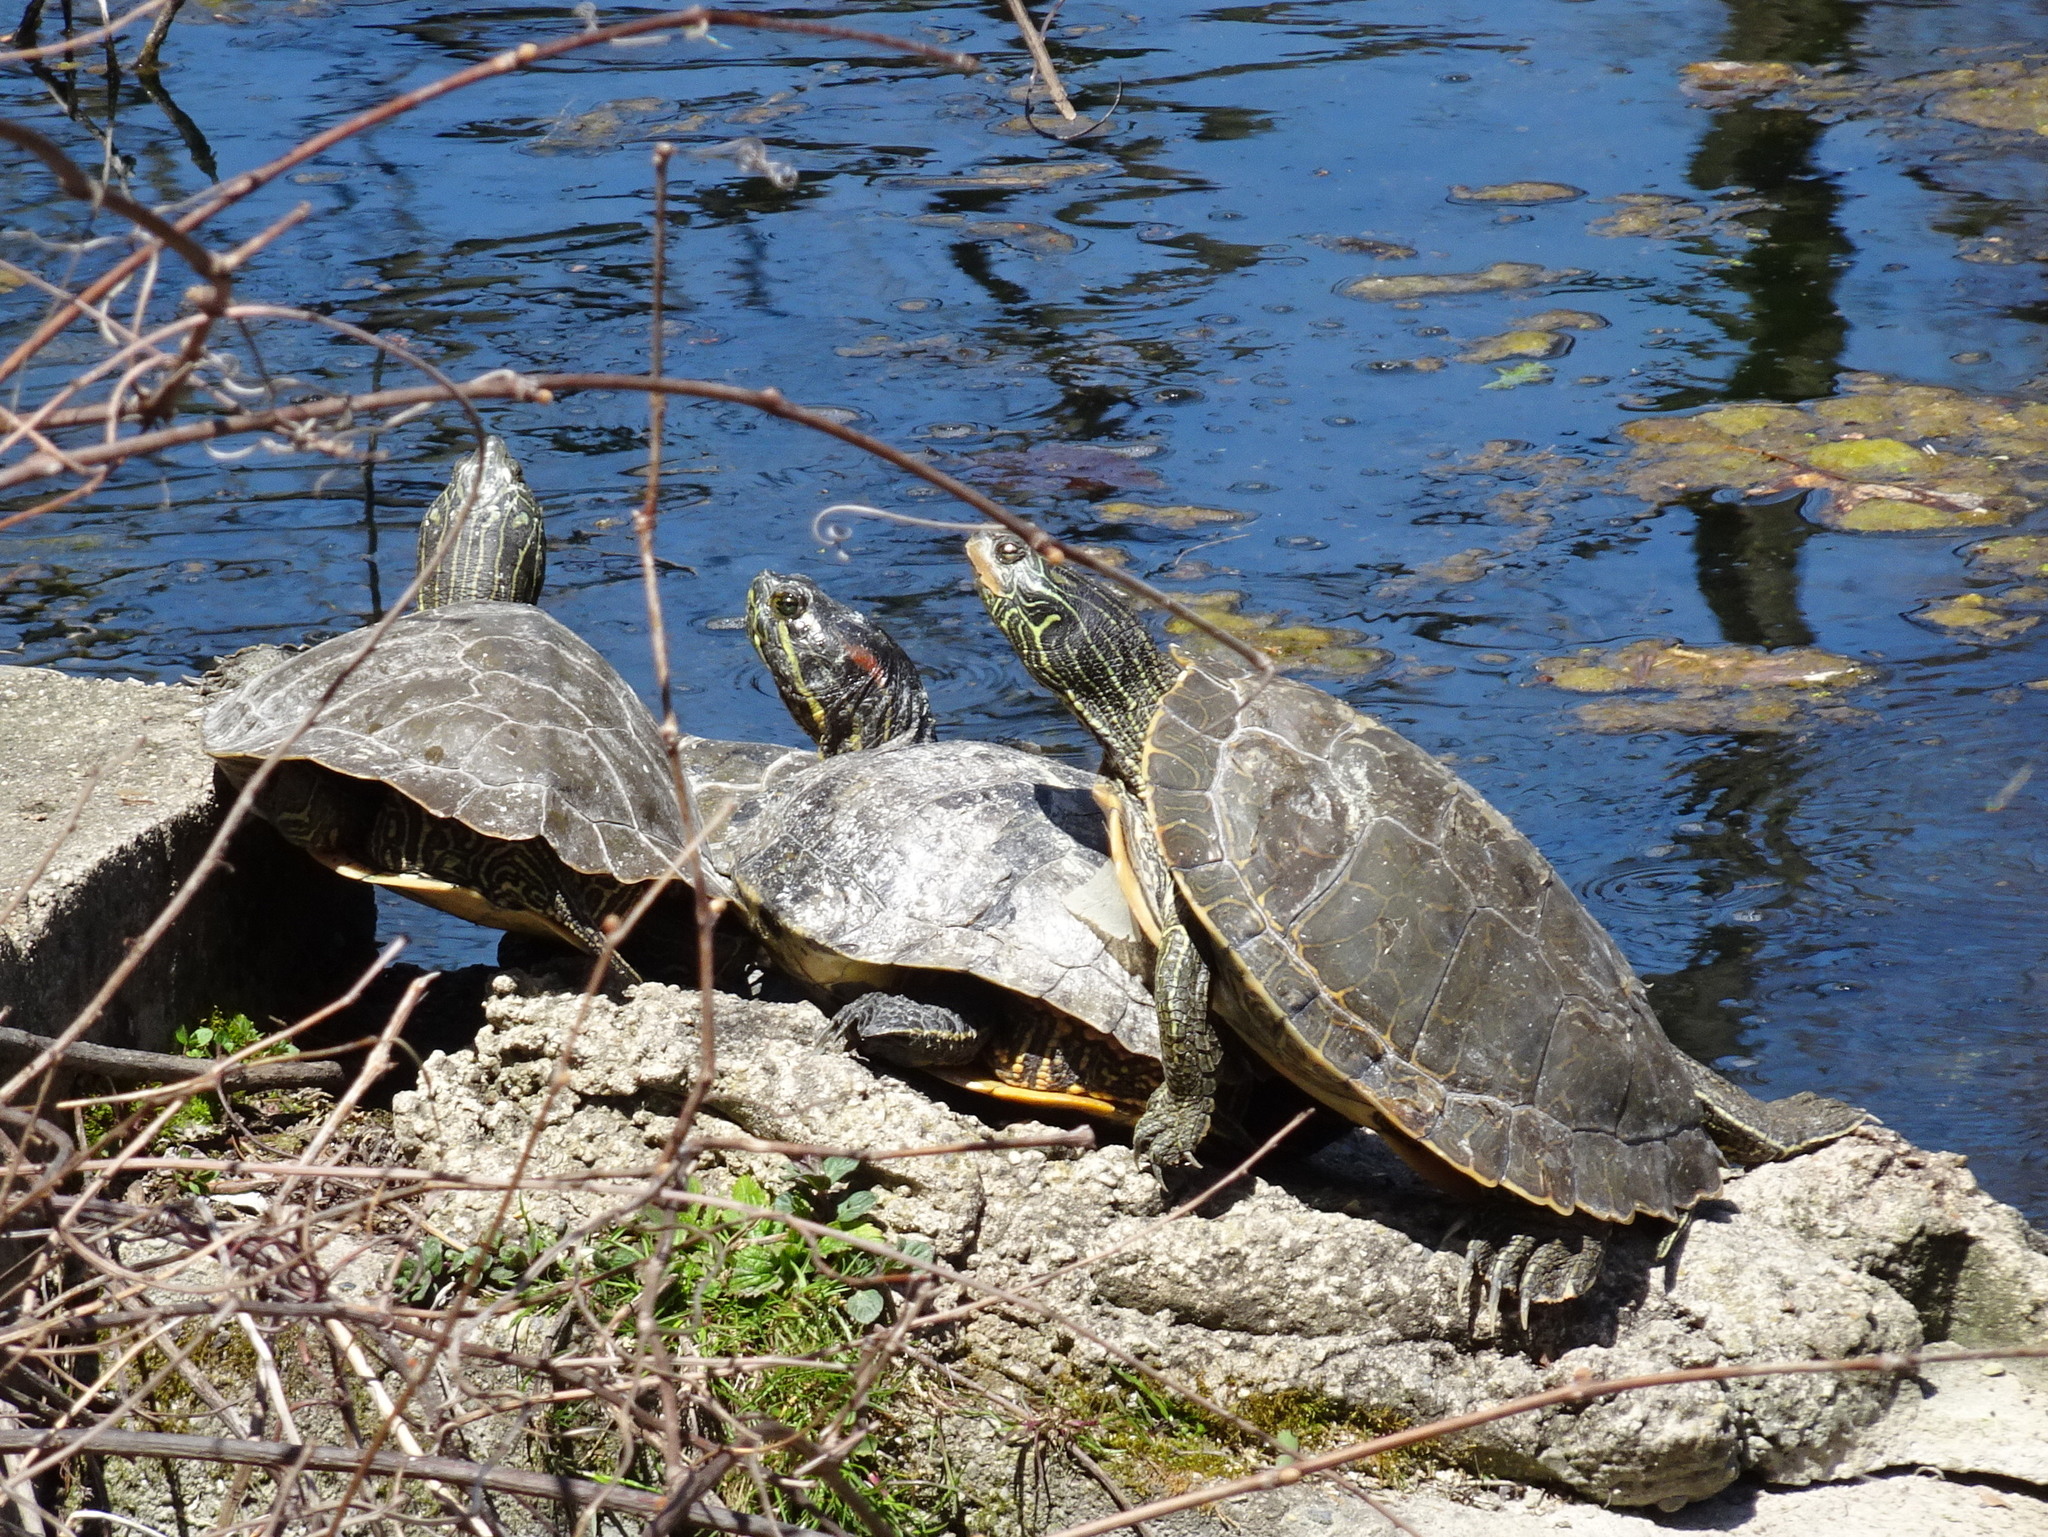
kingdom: Animalia
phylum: Chordata
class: Testudines
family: Emydidae
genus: Trachemys
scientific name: Trachemys scripta
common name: Slider
